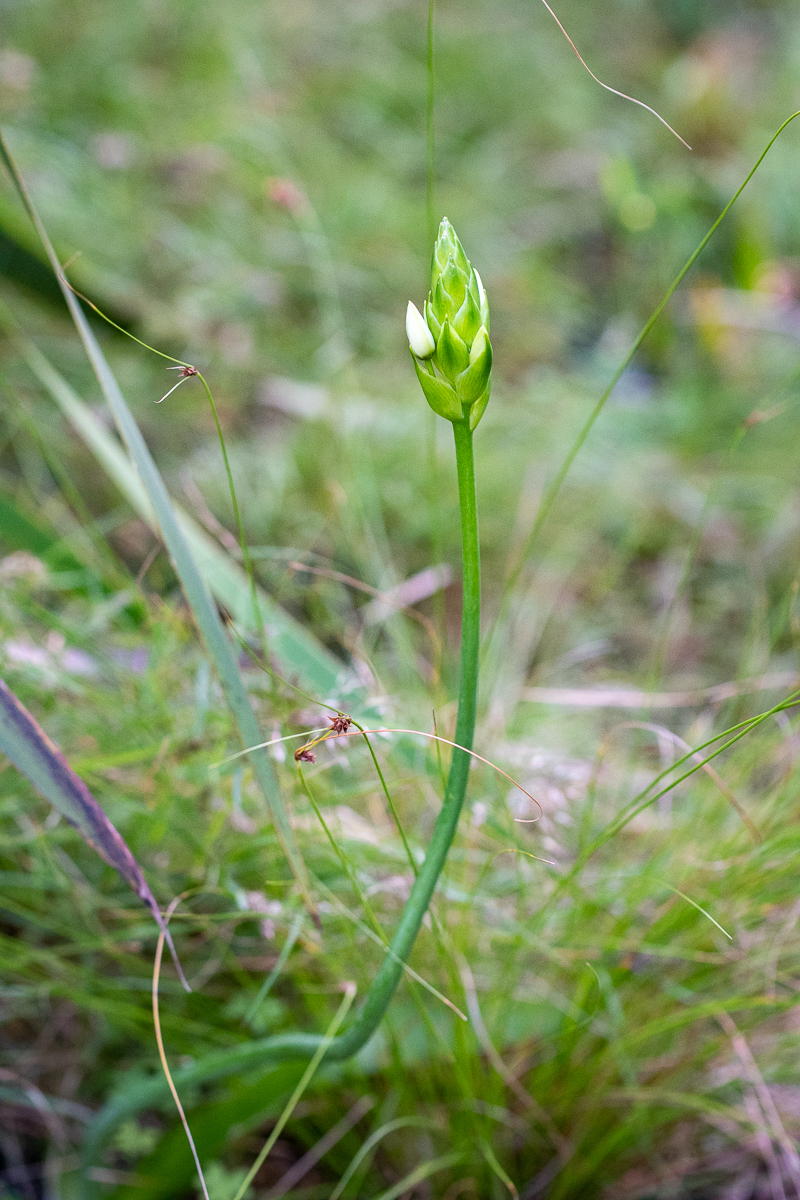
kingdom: Plantae
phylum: Tracheophyta
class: Liliopsida
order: Asparagales
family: Asparagaceae
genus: Ornithogalum
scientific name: Ornithogalum thyrsoides
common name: Chincherinchee
